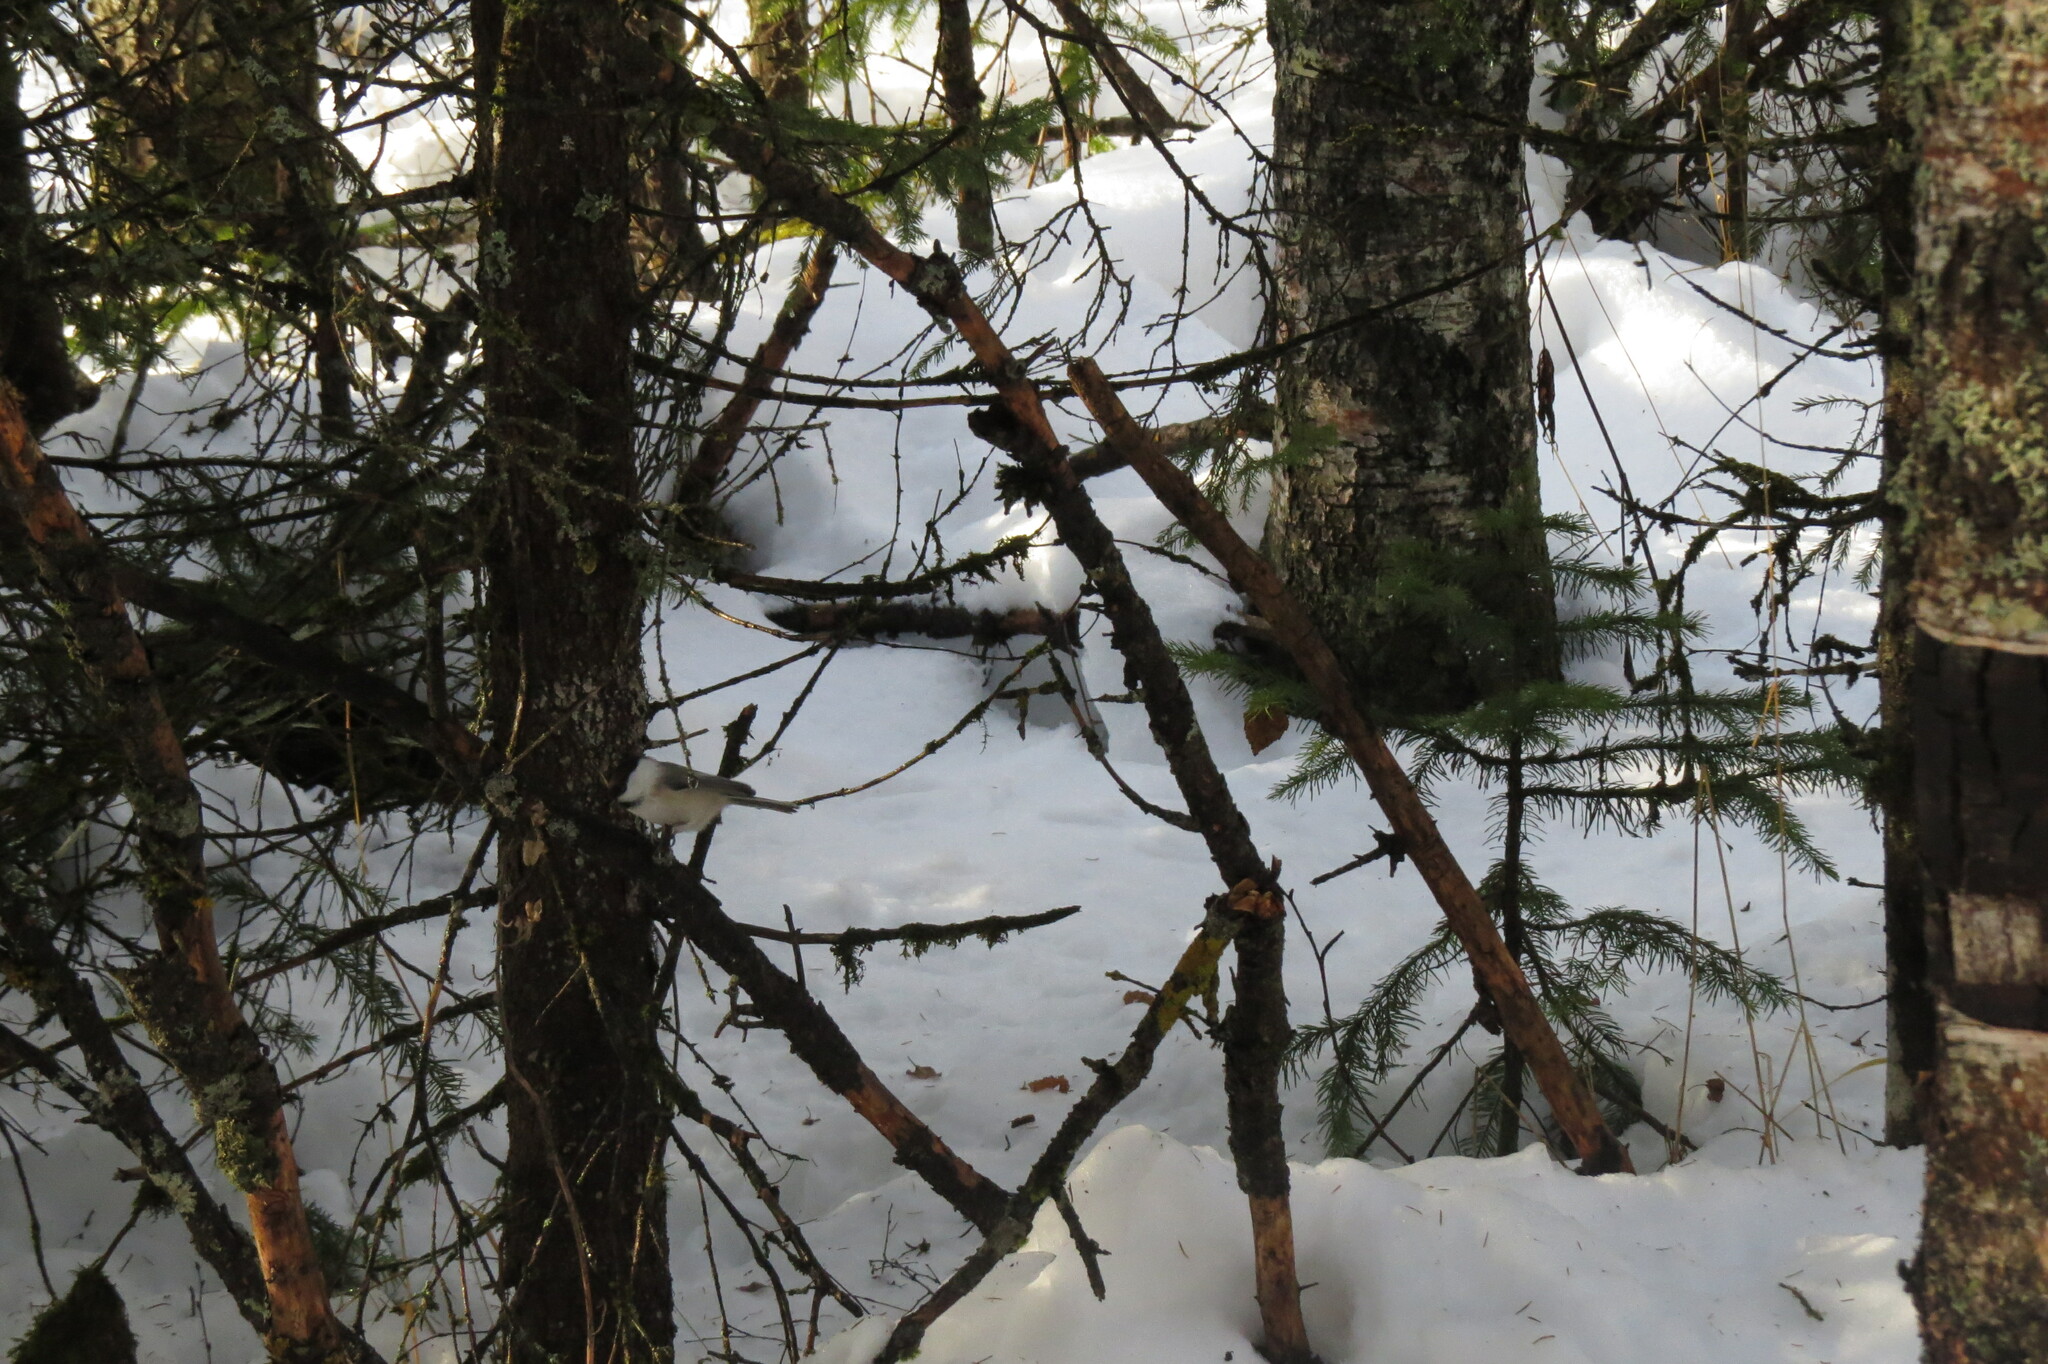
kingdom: Animalia
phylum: Chordata
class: Aves
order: Passeriformes
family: Paridae
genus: Poecile
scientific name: Poecile montanus
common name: Willow tit
